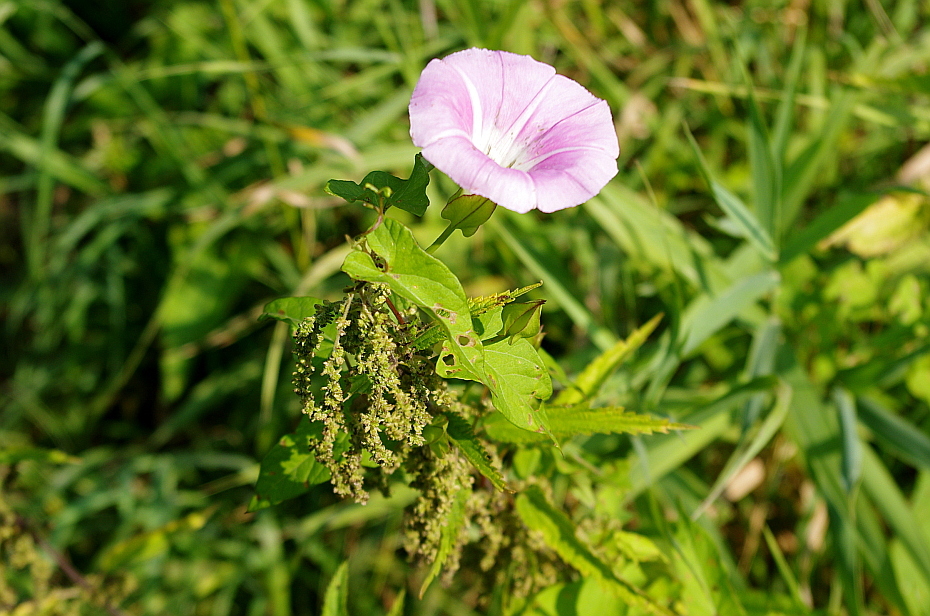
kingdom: Plantae
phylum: Tracheophyta
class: Magnoliopsida
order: Rosales
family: Urticaceae
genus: Urtica
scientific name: Urtica dioica
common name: Common nettle
